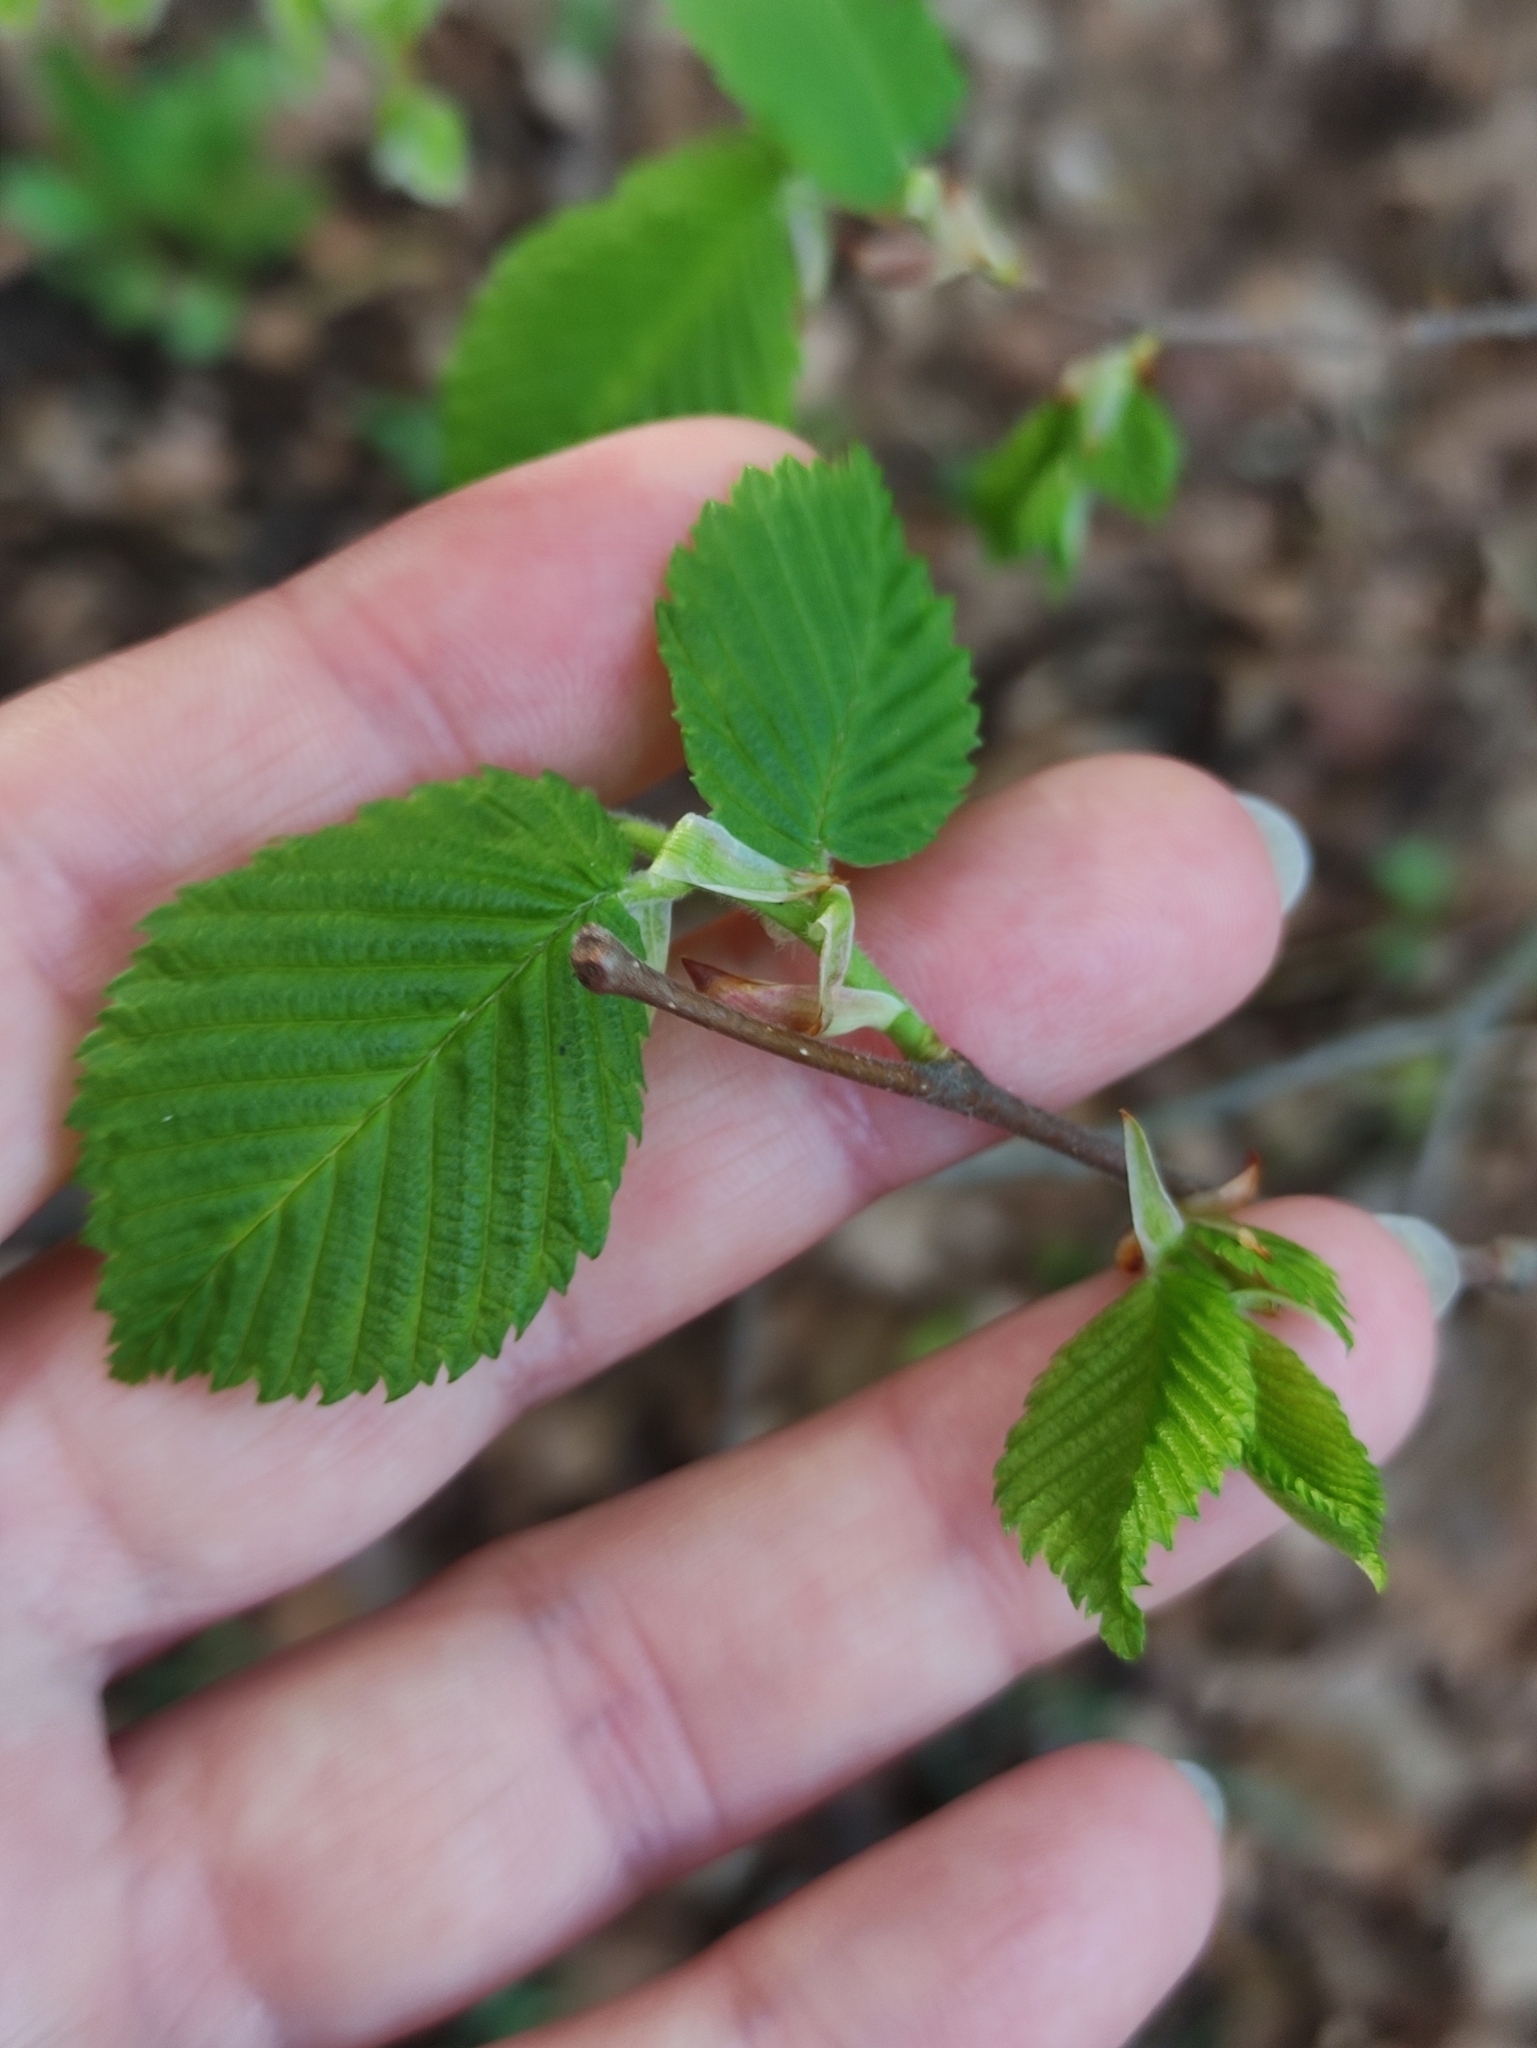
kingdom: Plantae
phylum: Tracheophyta
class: Magnoliopsida
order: Rosales
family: Ulmaceae
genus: Ulmus
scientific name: Ulmus laevis
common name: European white-elm
